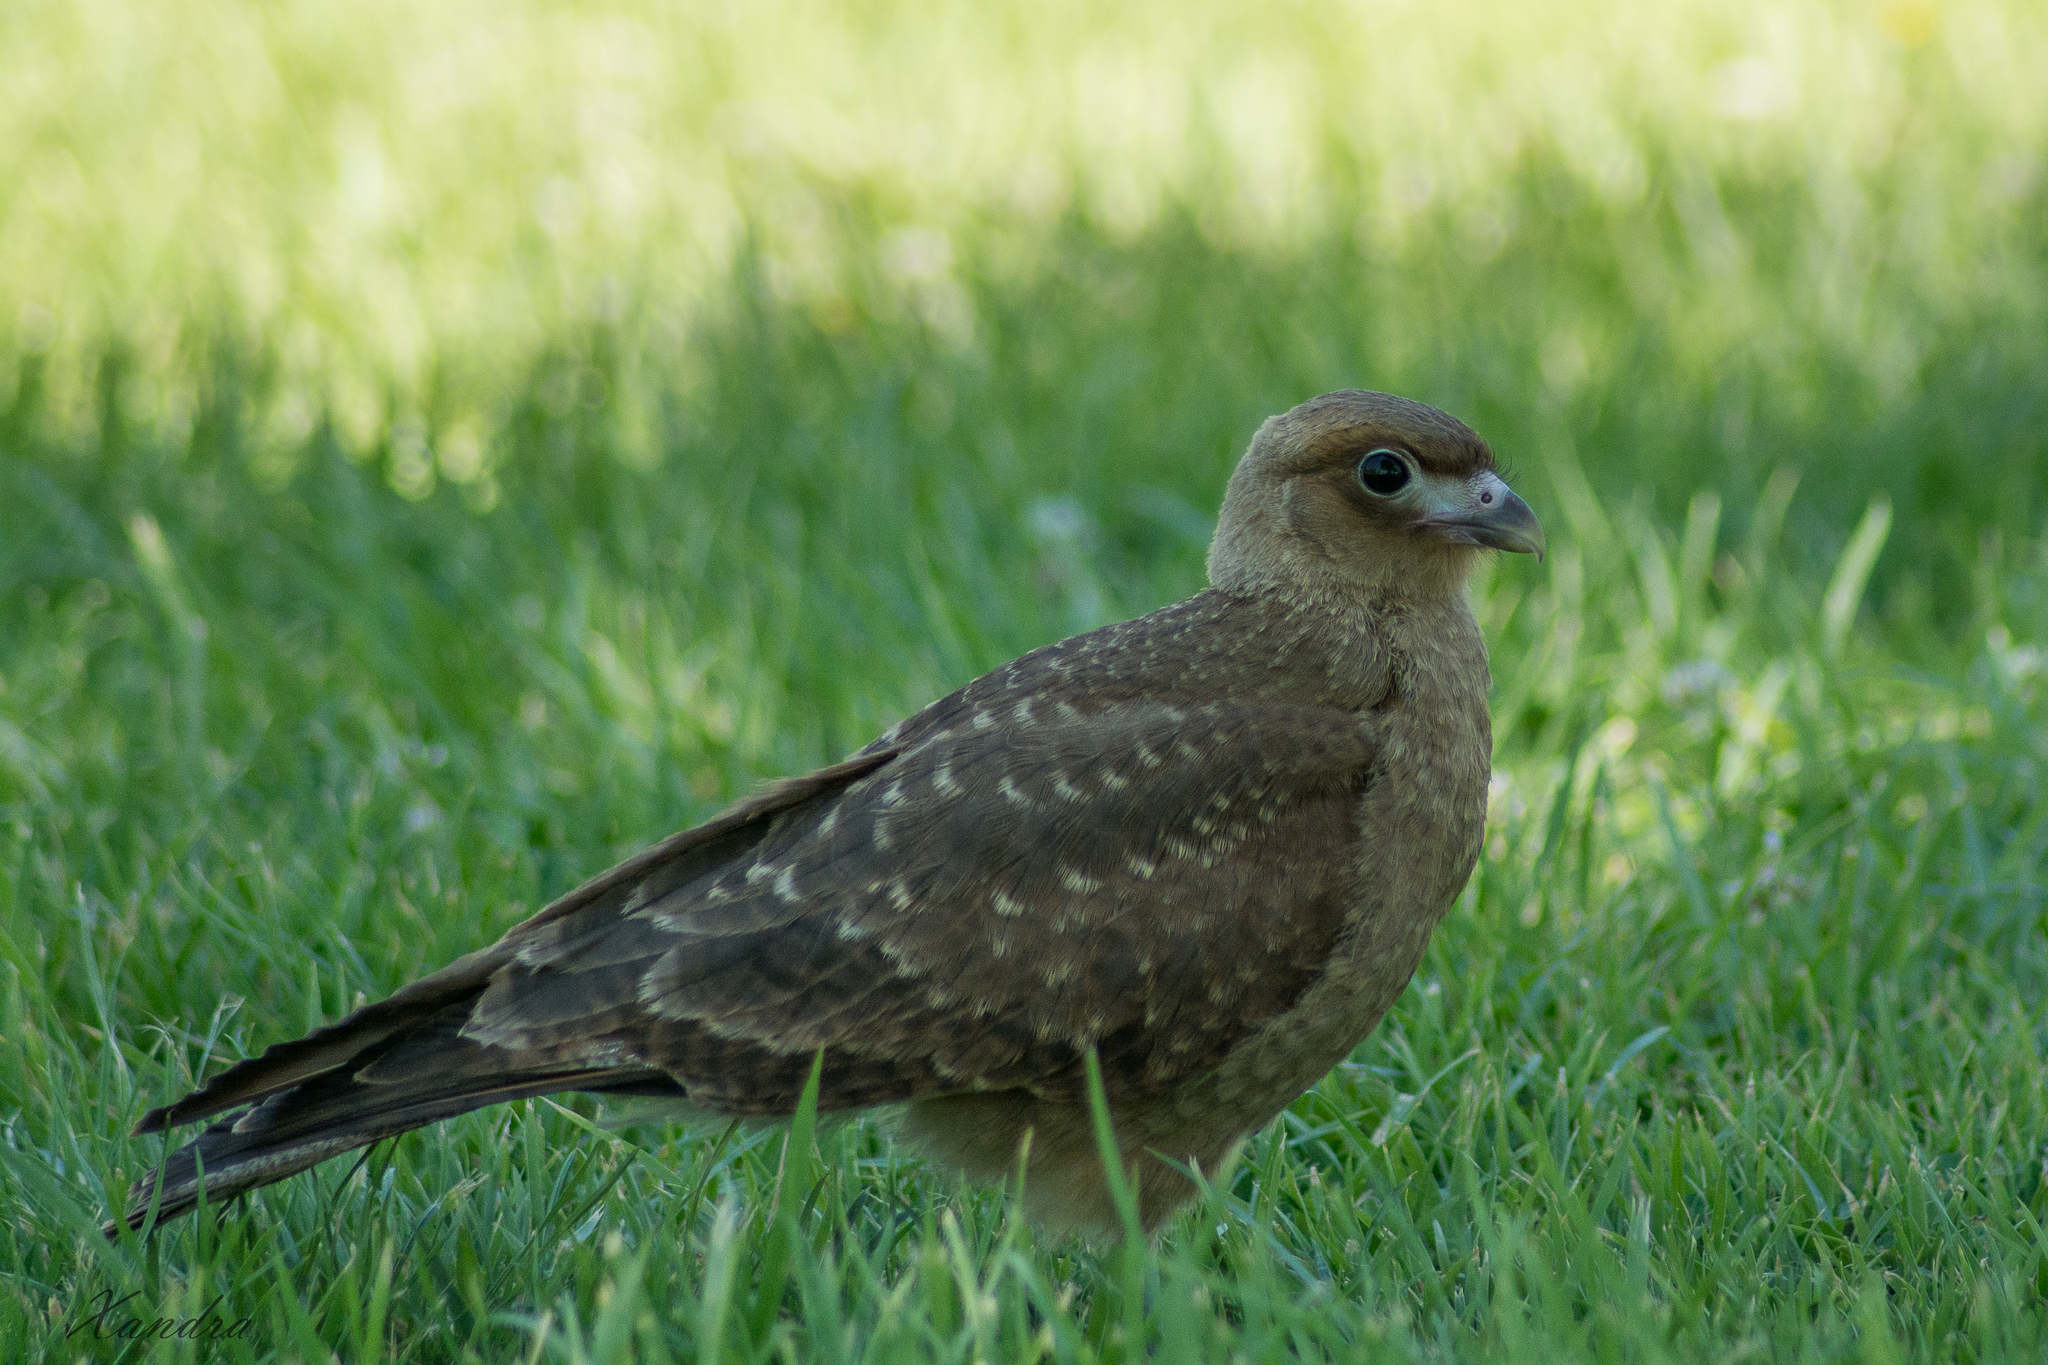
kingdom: Animalia
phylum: Chordata
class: Aves
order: Falconiformes
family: Falconidae
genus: Daptrius
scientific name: Daptrius
